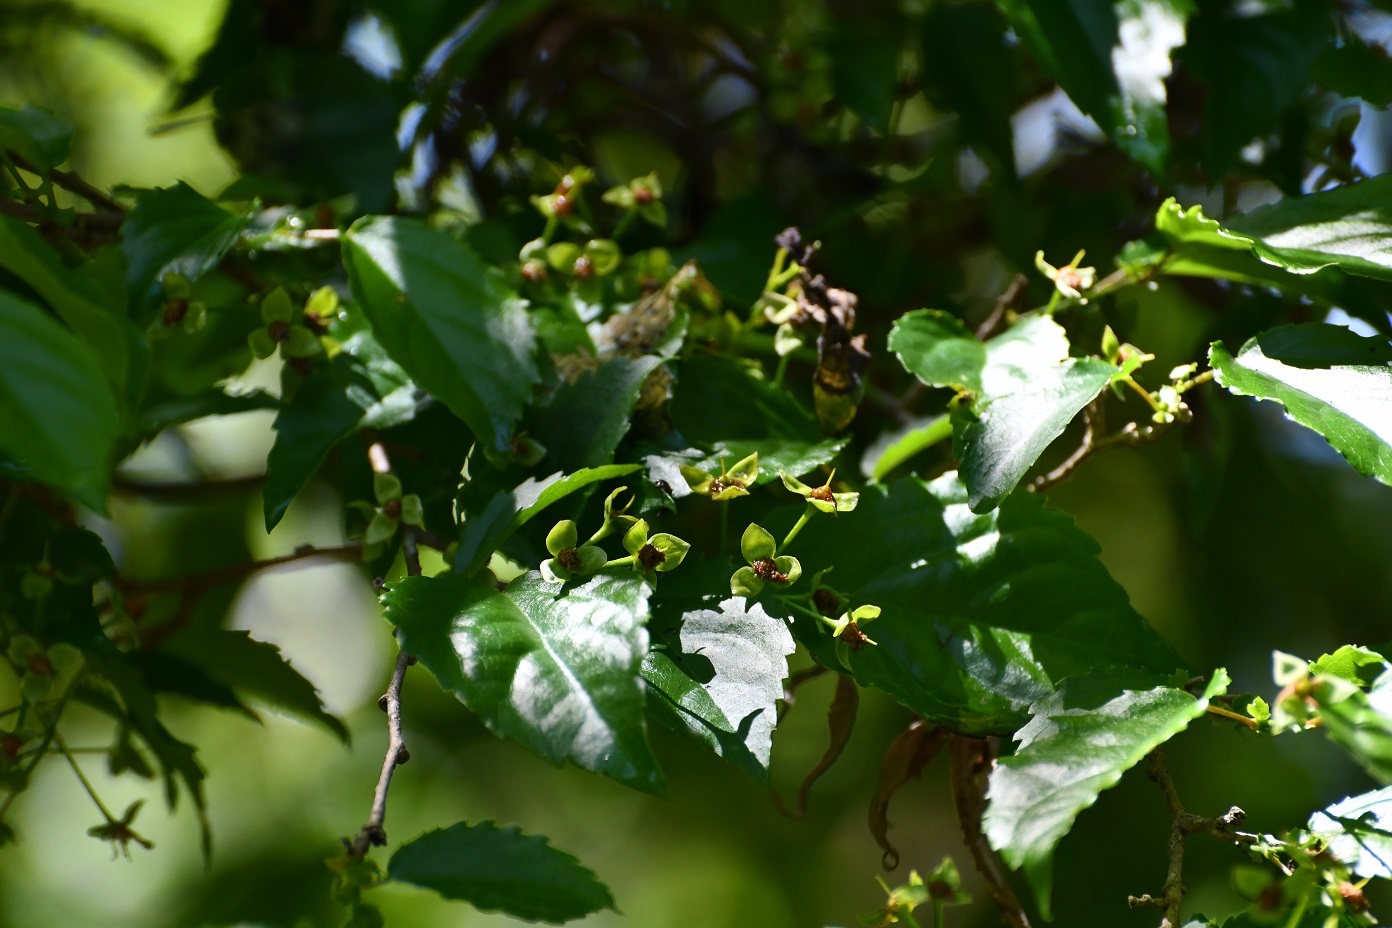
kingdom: Plantae
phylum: Tracheophyta
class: Magnoliopsida
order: Malpighiales
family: Salicaceae
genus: Prockia
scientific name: Prockia crucis
